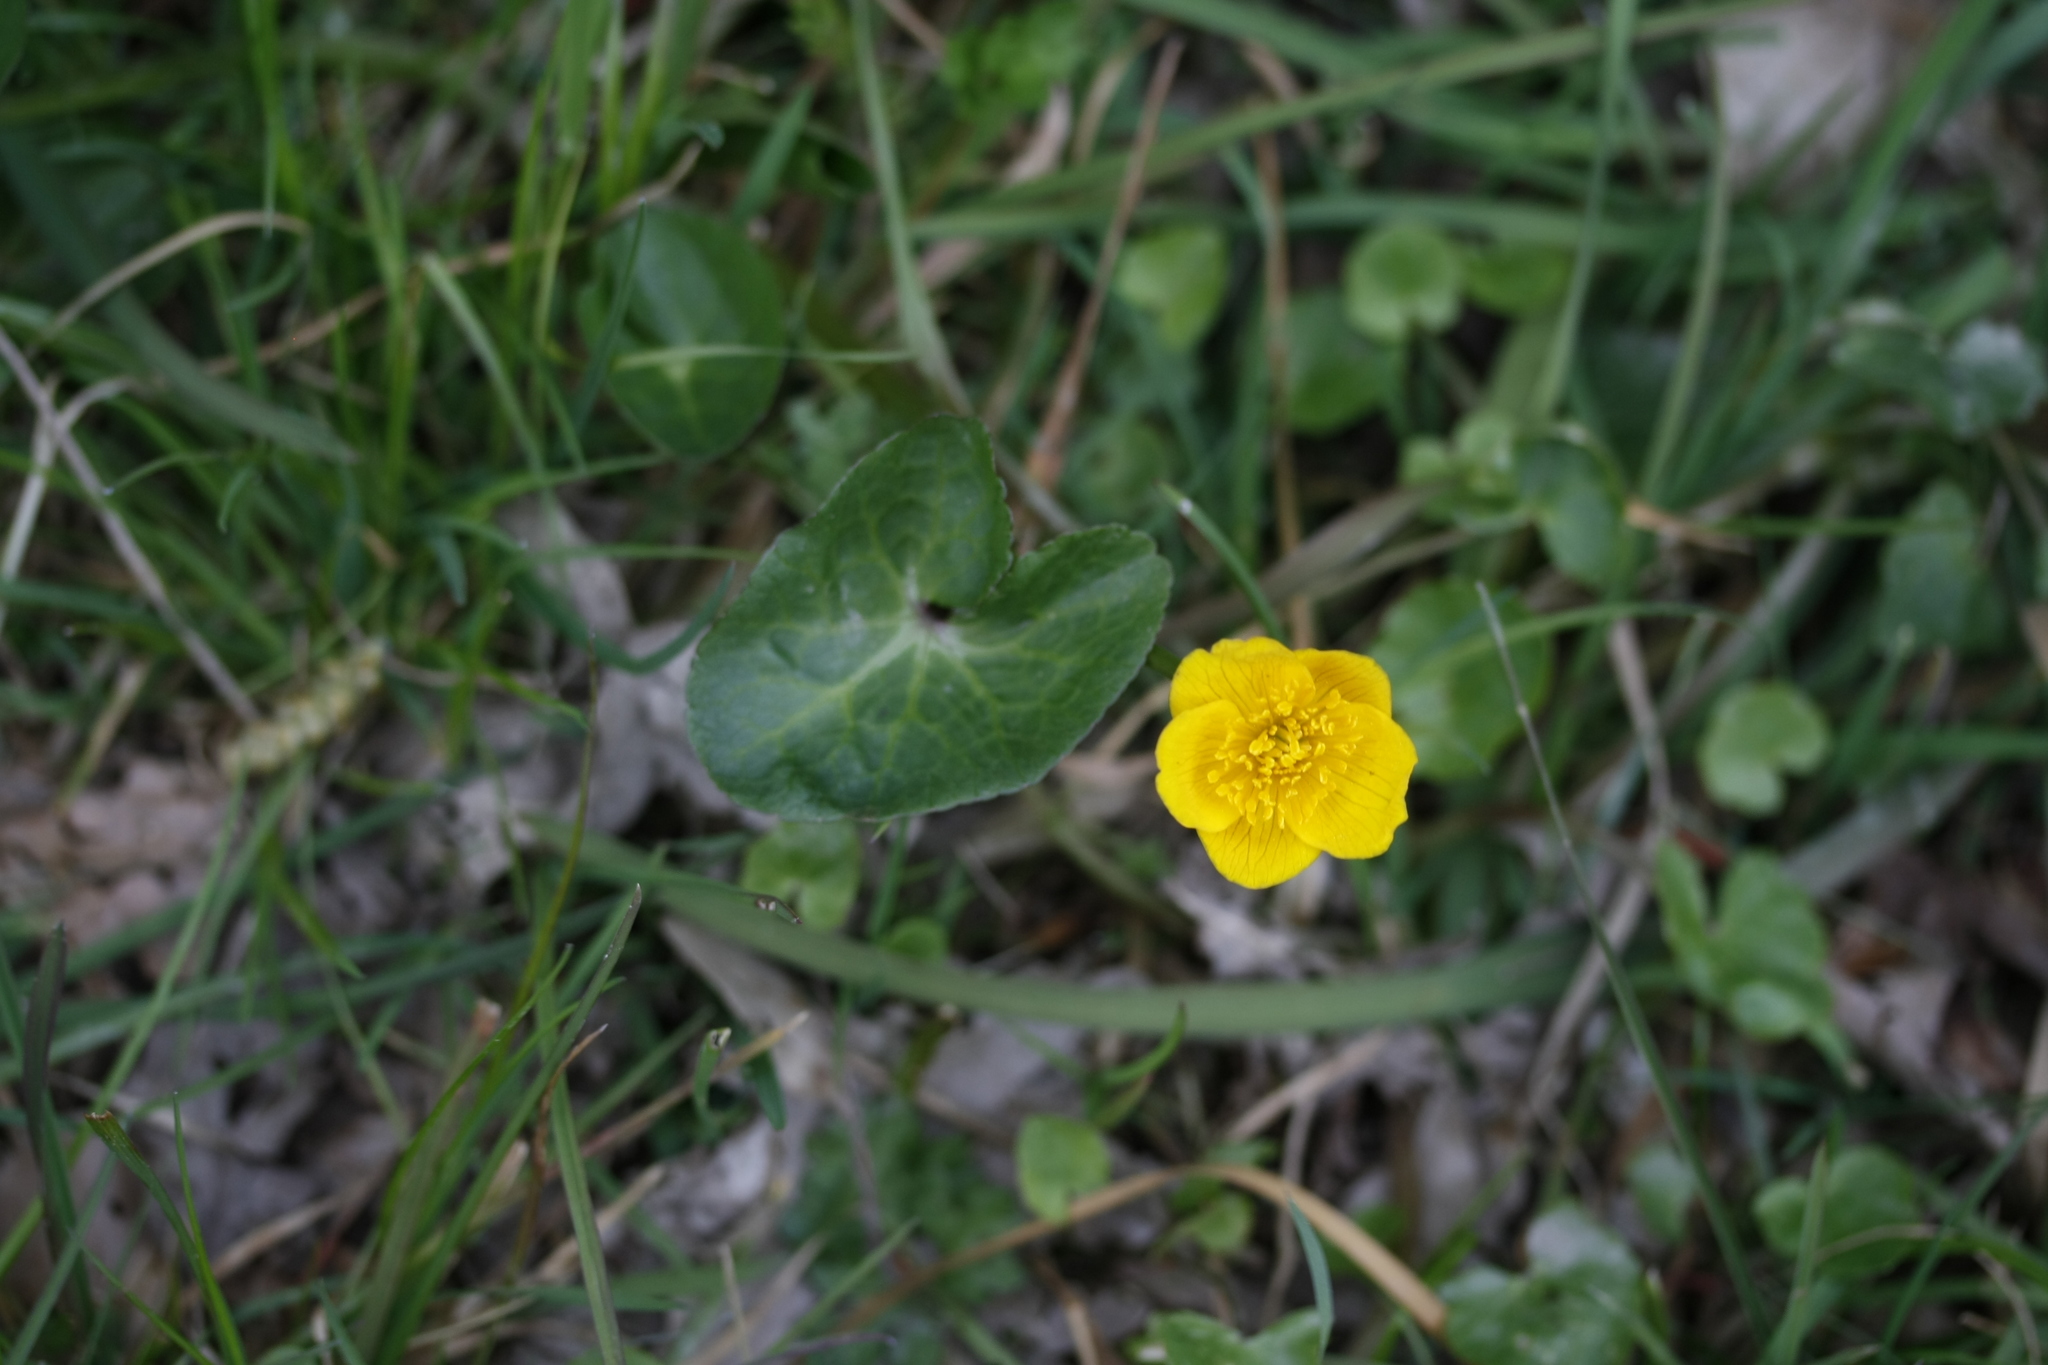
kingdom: Plantae
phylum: Tracheophyta
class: Magnoliopsida
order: Ranunculales
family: Ranunculaceae
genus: Caltha
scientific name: Caltha palustris
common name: Marsh marigold
